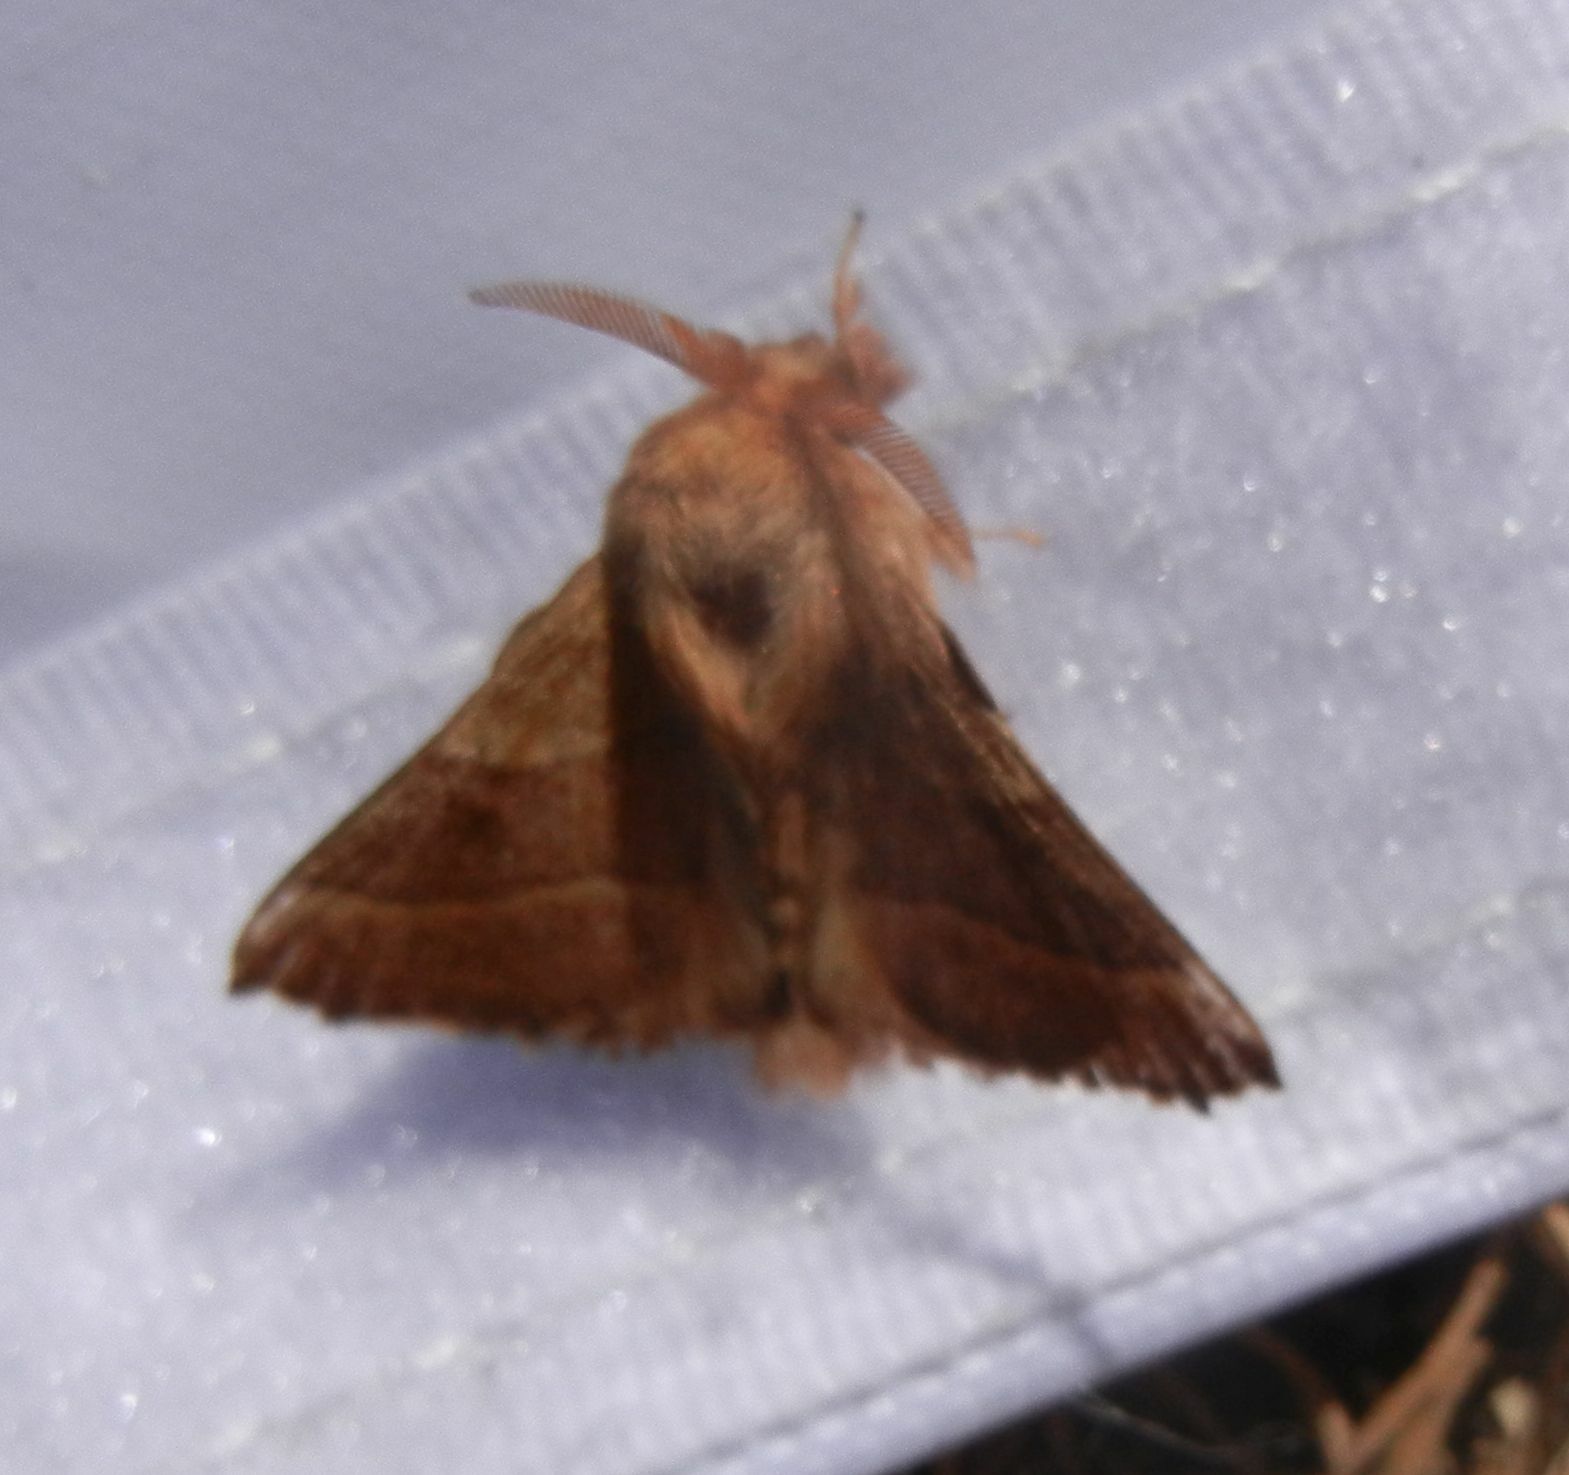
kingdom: Animalia
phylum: Arthropoda
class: Insecta
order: Lepidoptera
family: Lasiocampidae
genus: Malacosoma
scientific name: Malacosoma neustria
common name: The lackey
